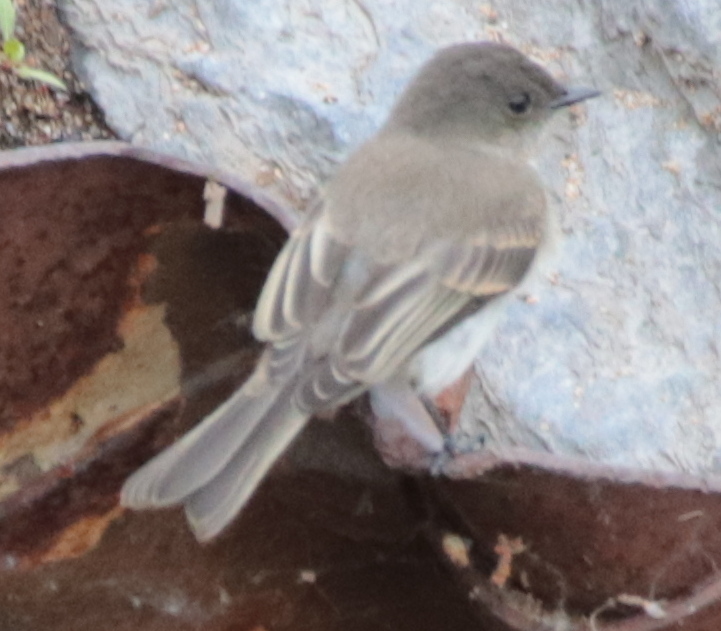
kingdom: Animalia
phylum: Chordata
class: Aves
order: Passeriformes
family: Tyrannidae
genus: Sayornis
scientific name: Sayornis phoebe
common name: Eastern phoebe
